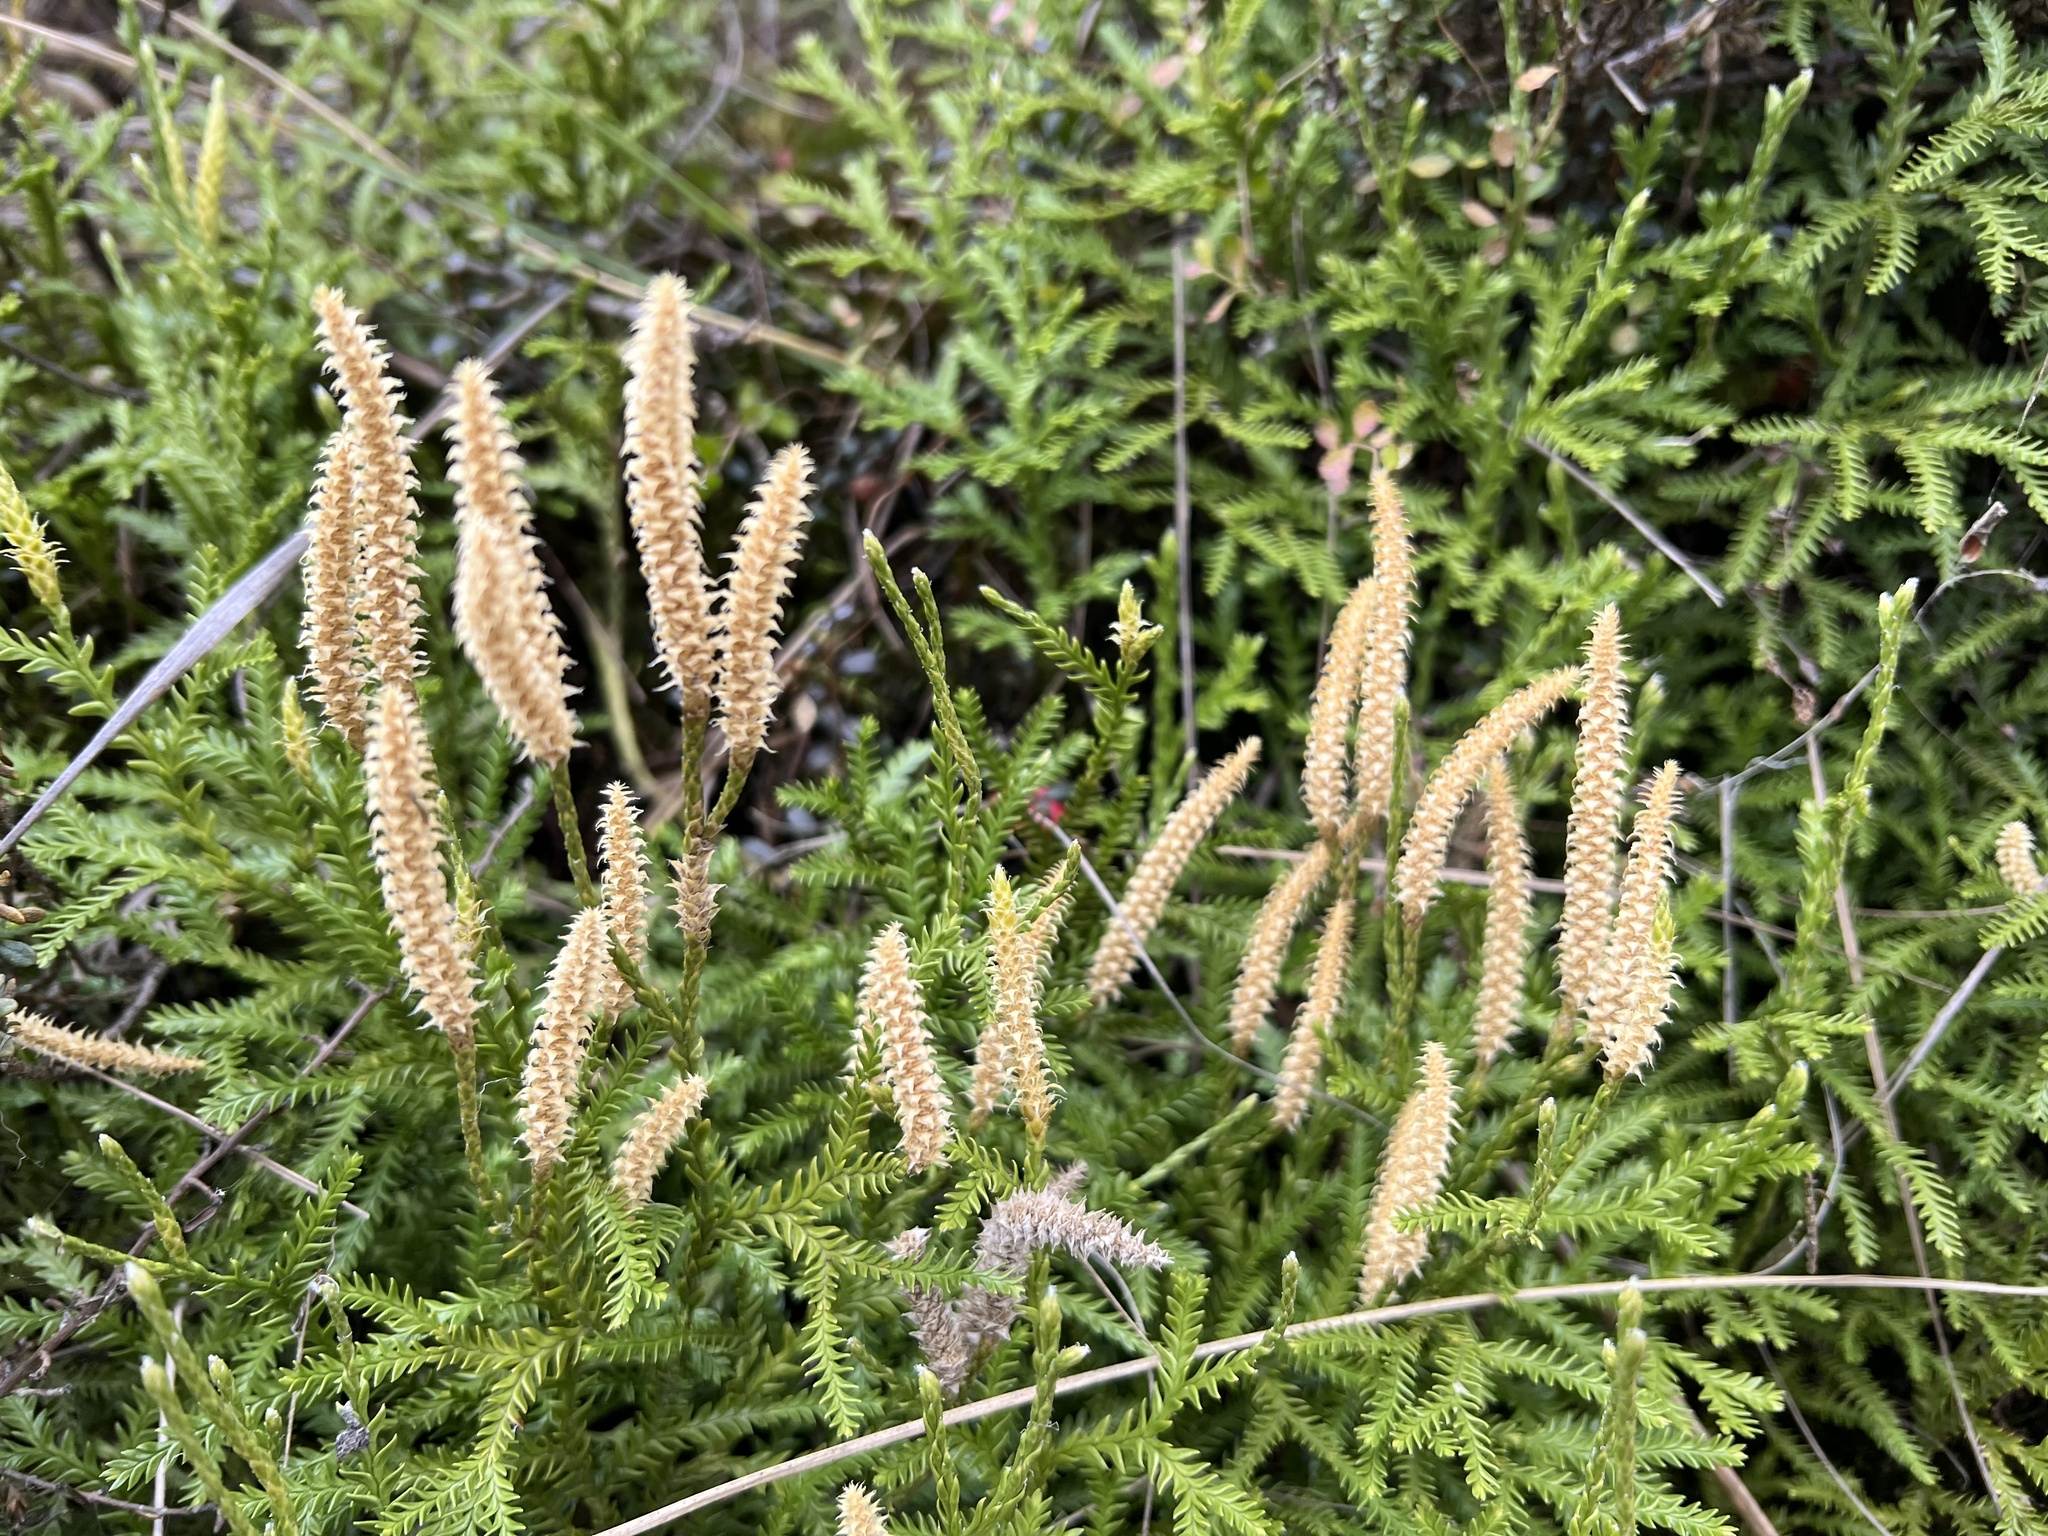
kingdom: Plantae
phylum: Tracheophyta
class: Lycopodiopsida
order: Lycopodiales
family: Lycopodiaceae
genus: Diphasium
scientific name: Diphasium scariosum
